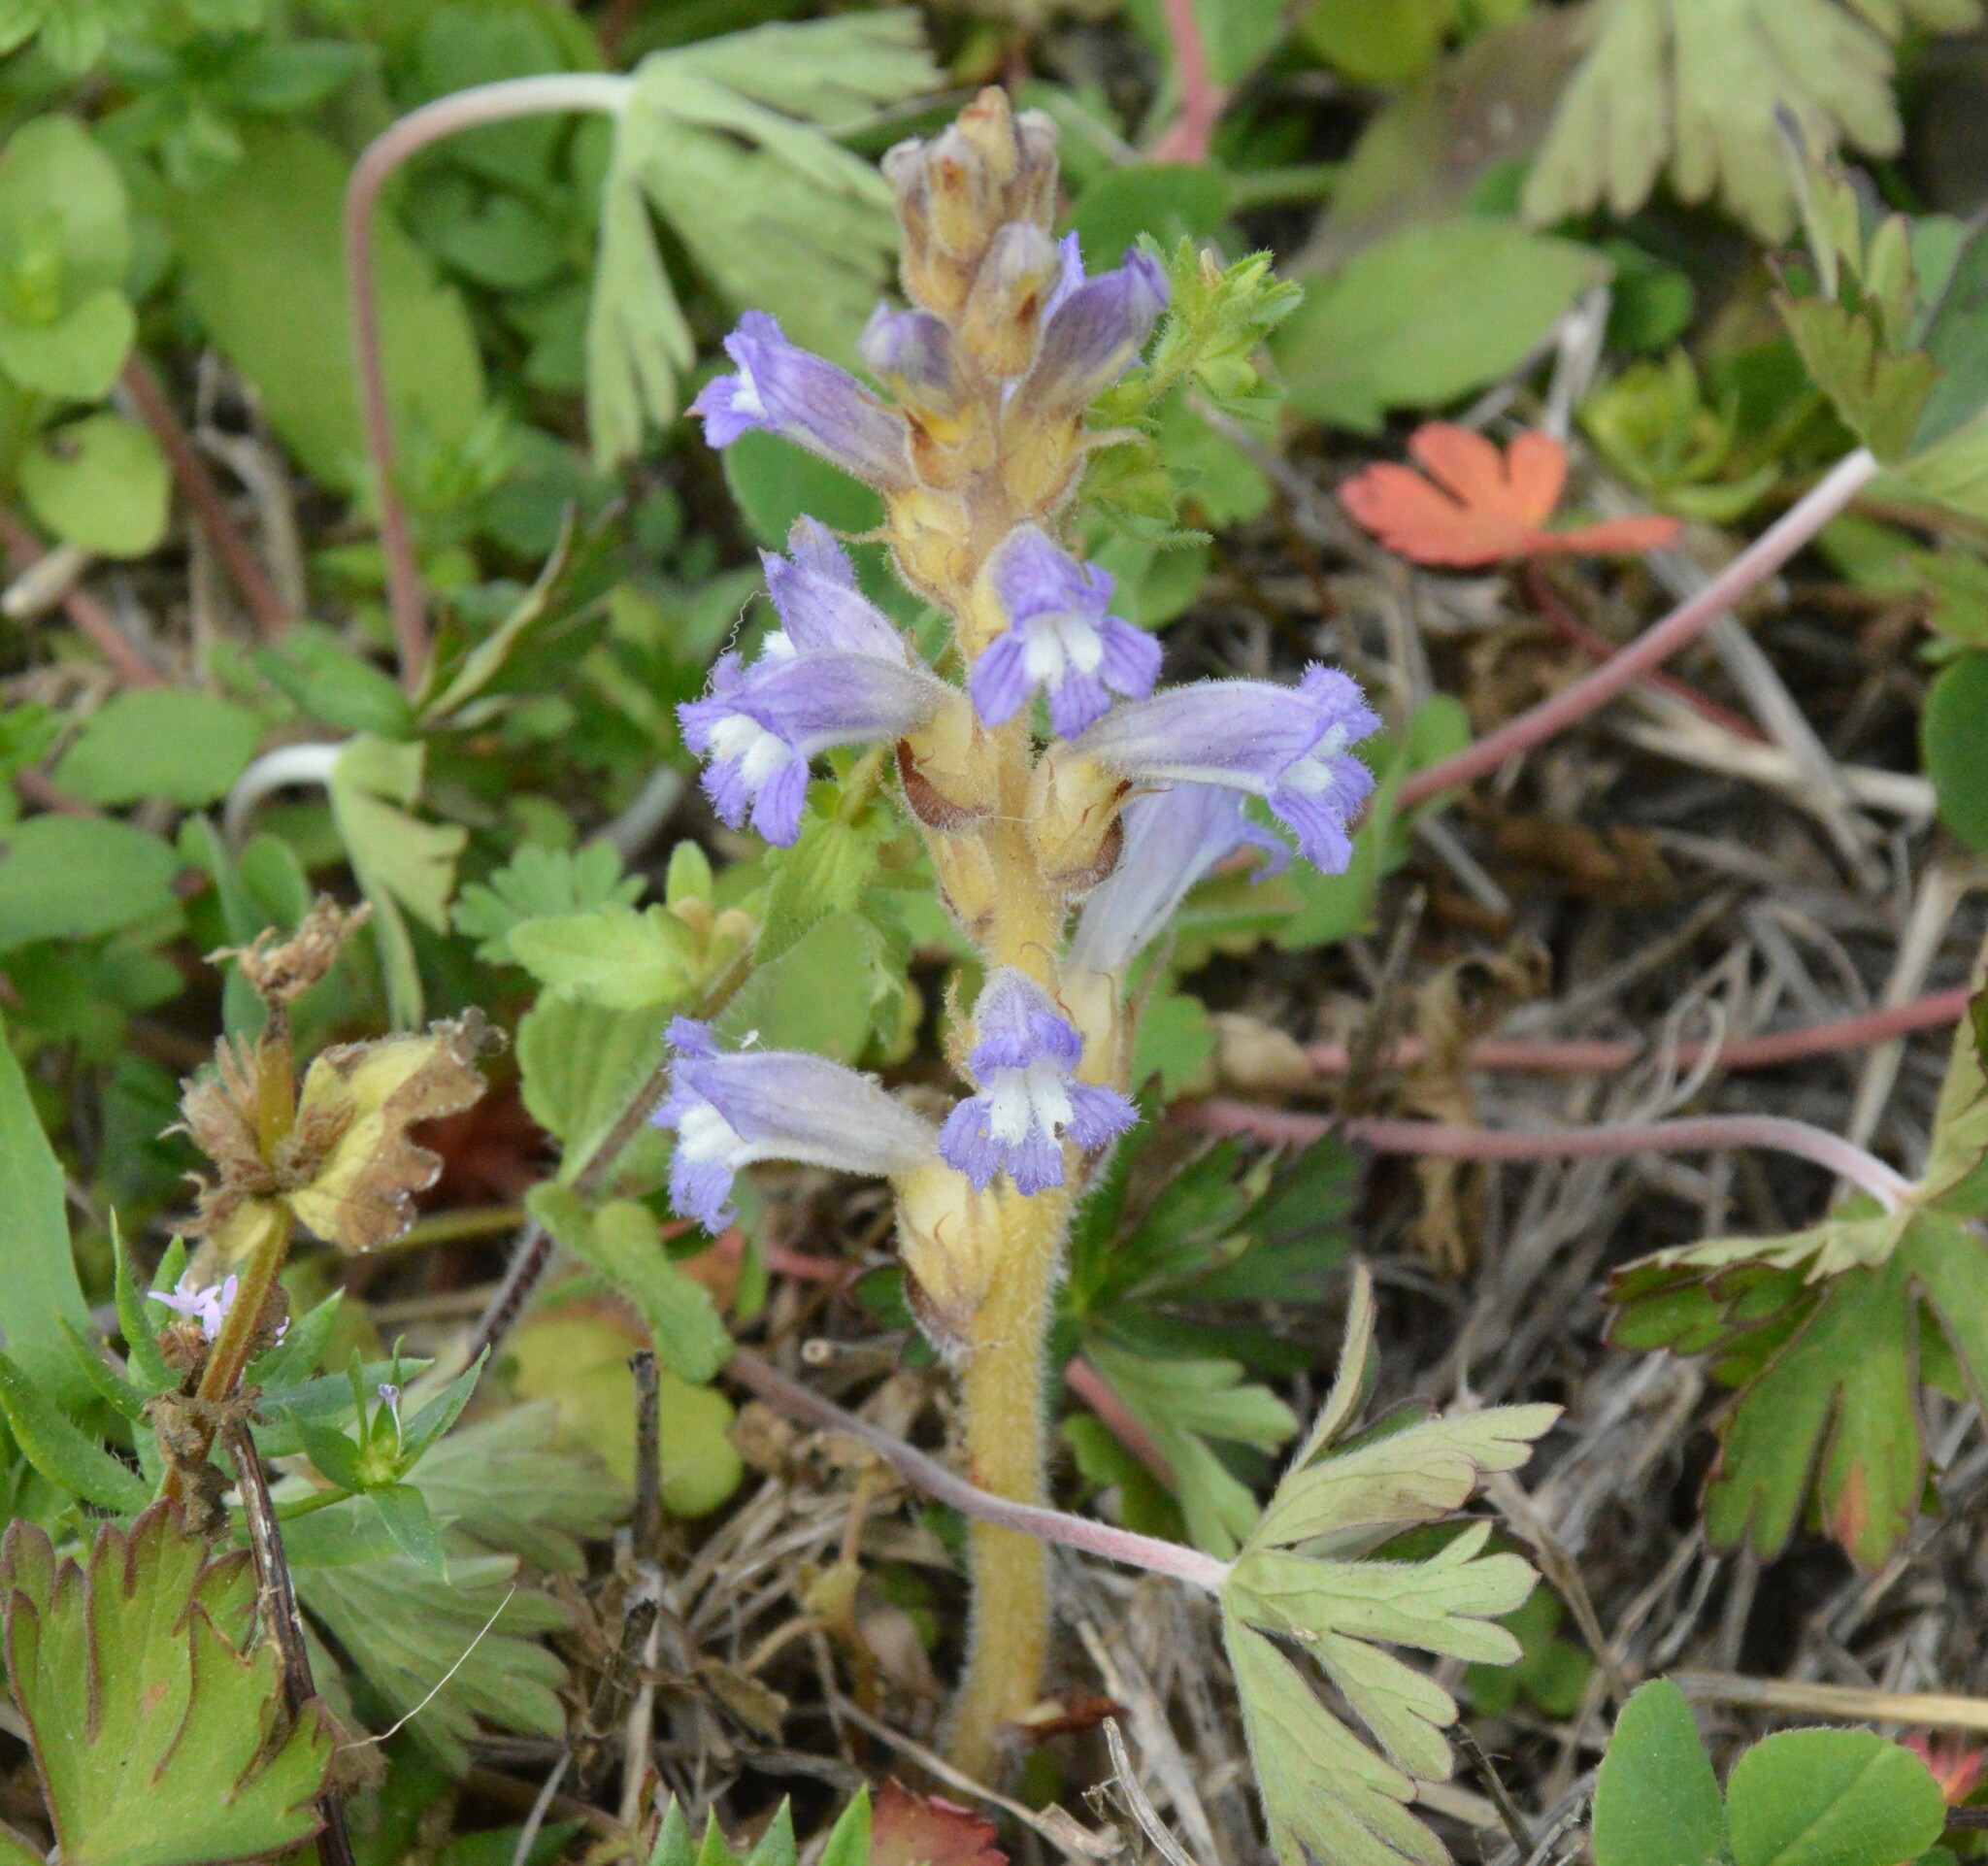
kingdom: Plantae
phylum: Tracheophyta
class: Magnoliopsida
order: Lamiales
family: Orobanchaceae
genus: Phelipanche
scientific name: Phelipanche mutelii
